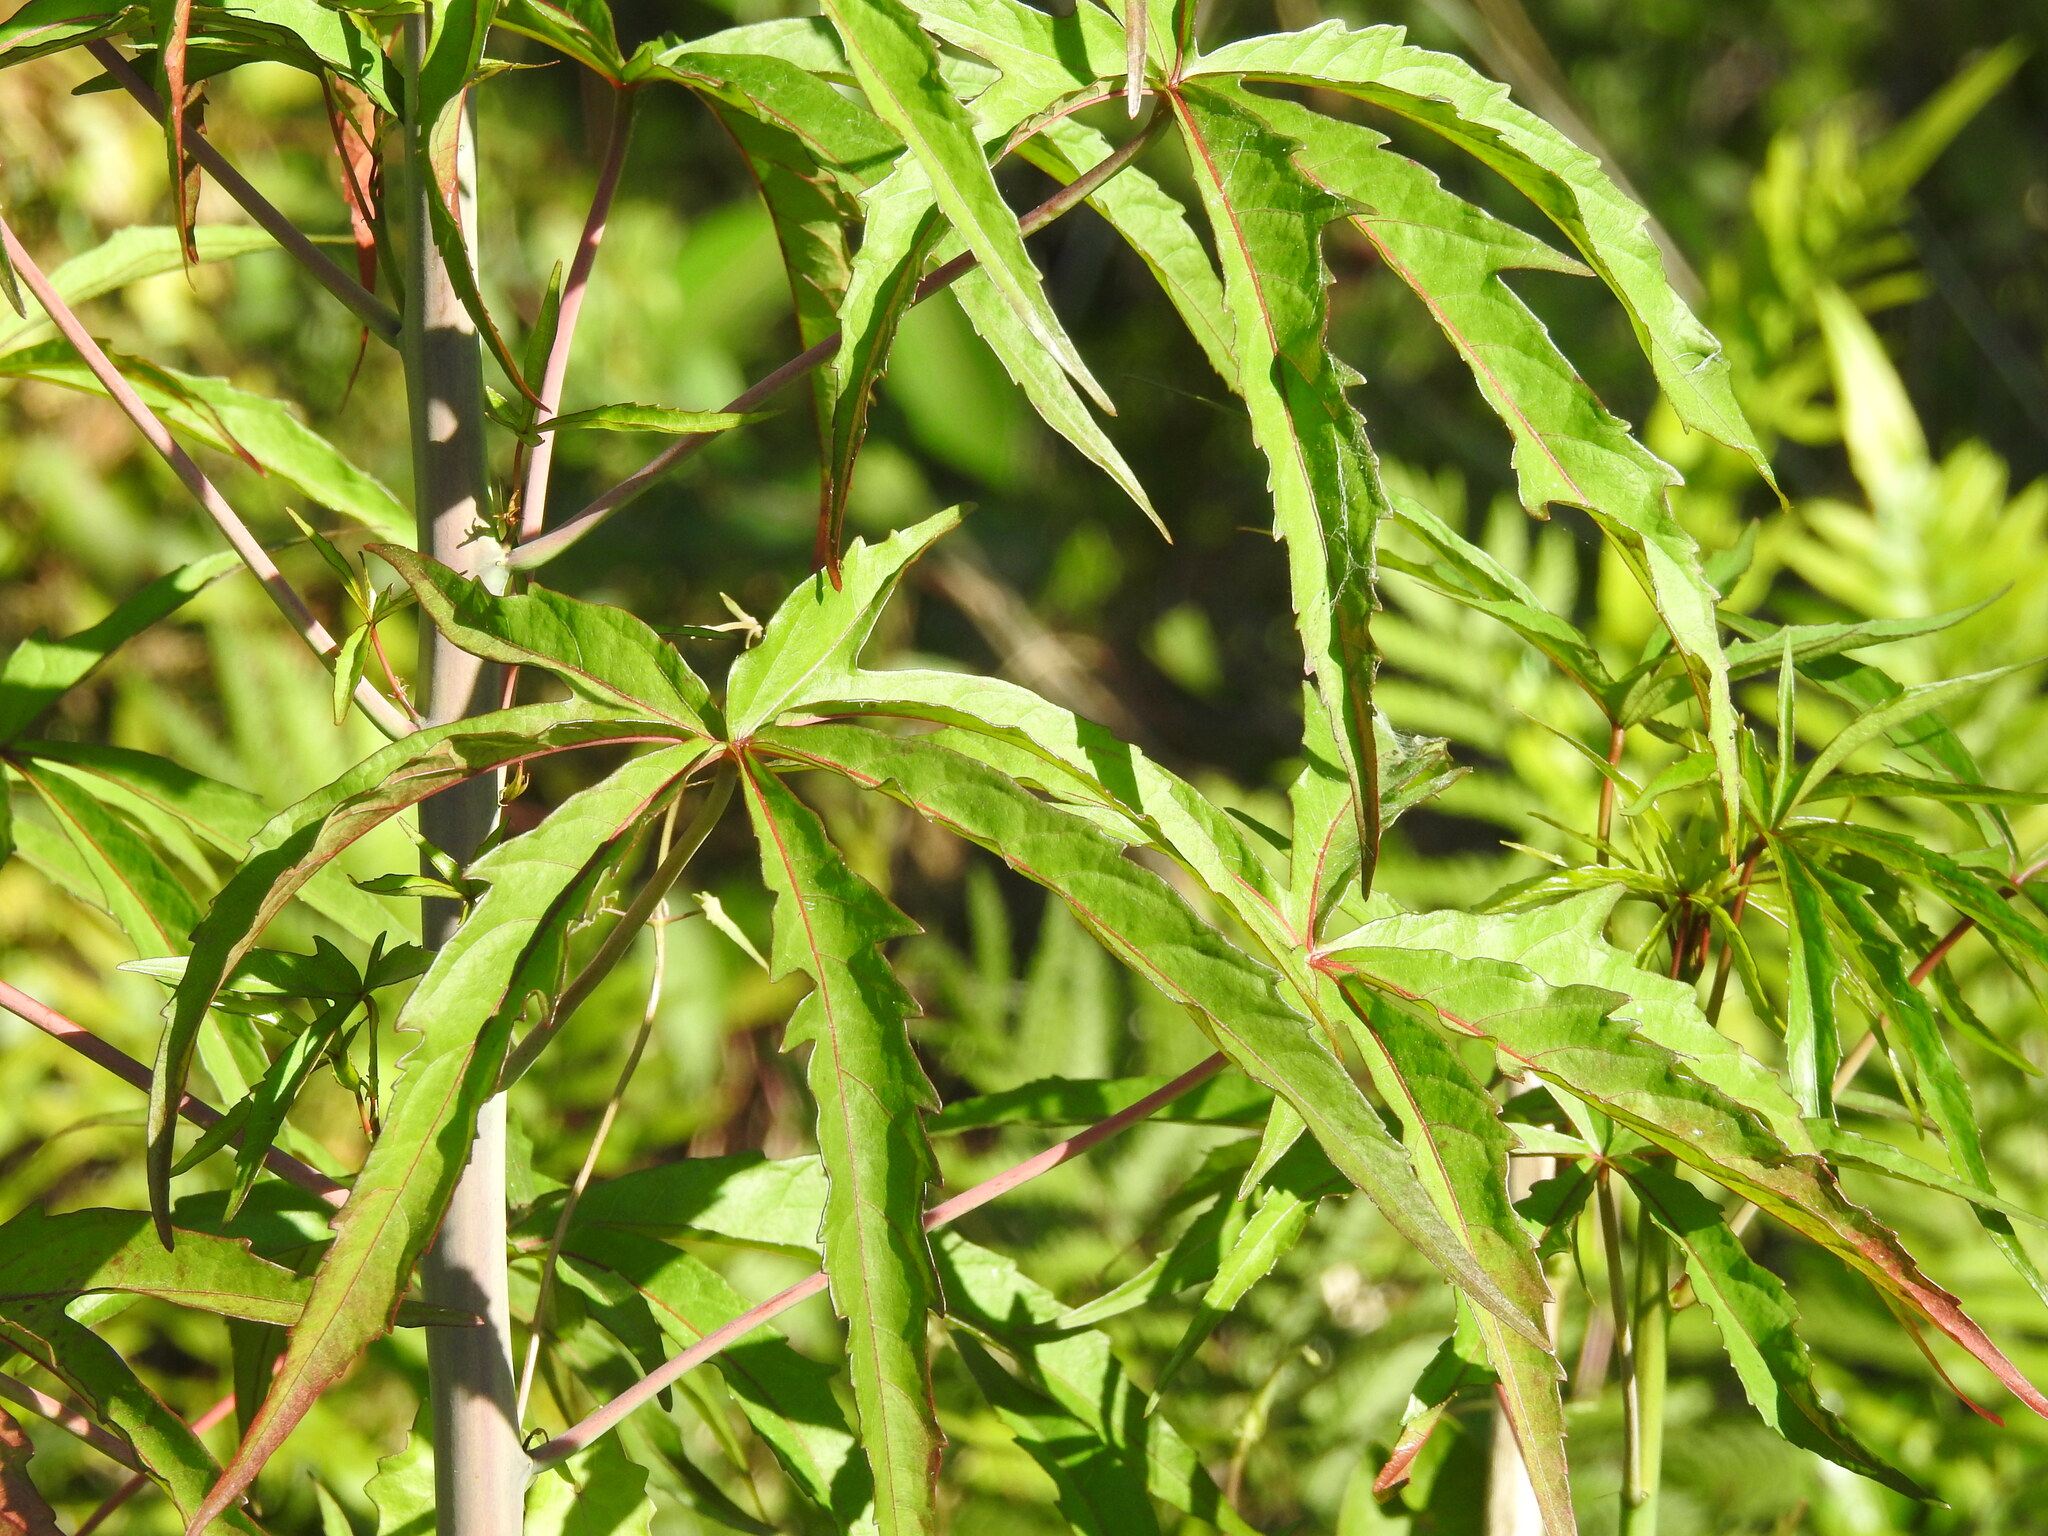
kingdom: Plantae
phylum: Tracheophyta
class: Magnoliopsida
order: Malvales
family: Malvaceae
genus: Hibiscus
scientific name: Hibiscus coccineus
